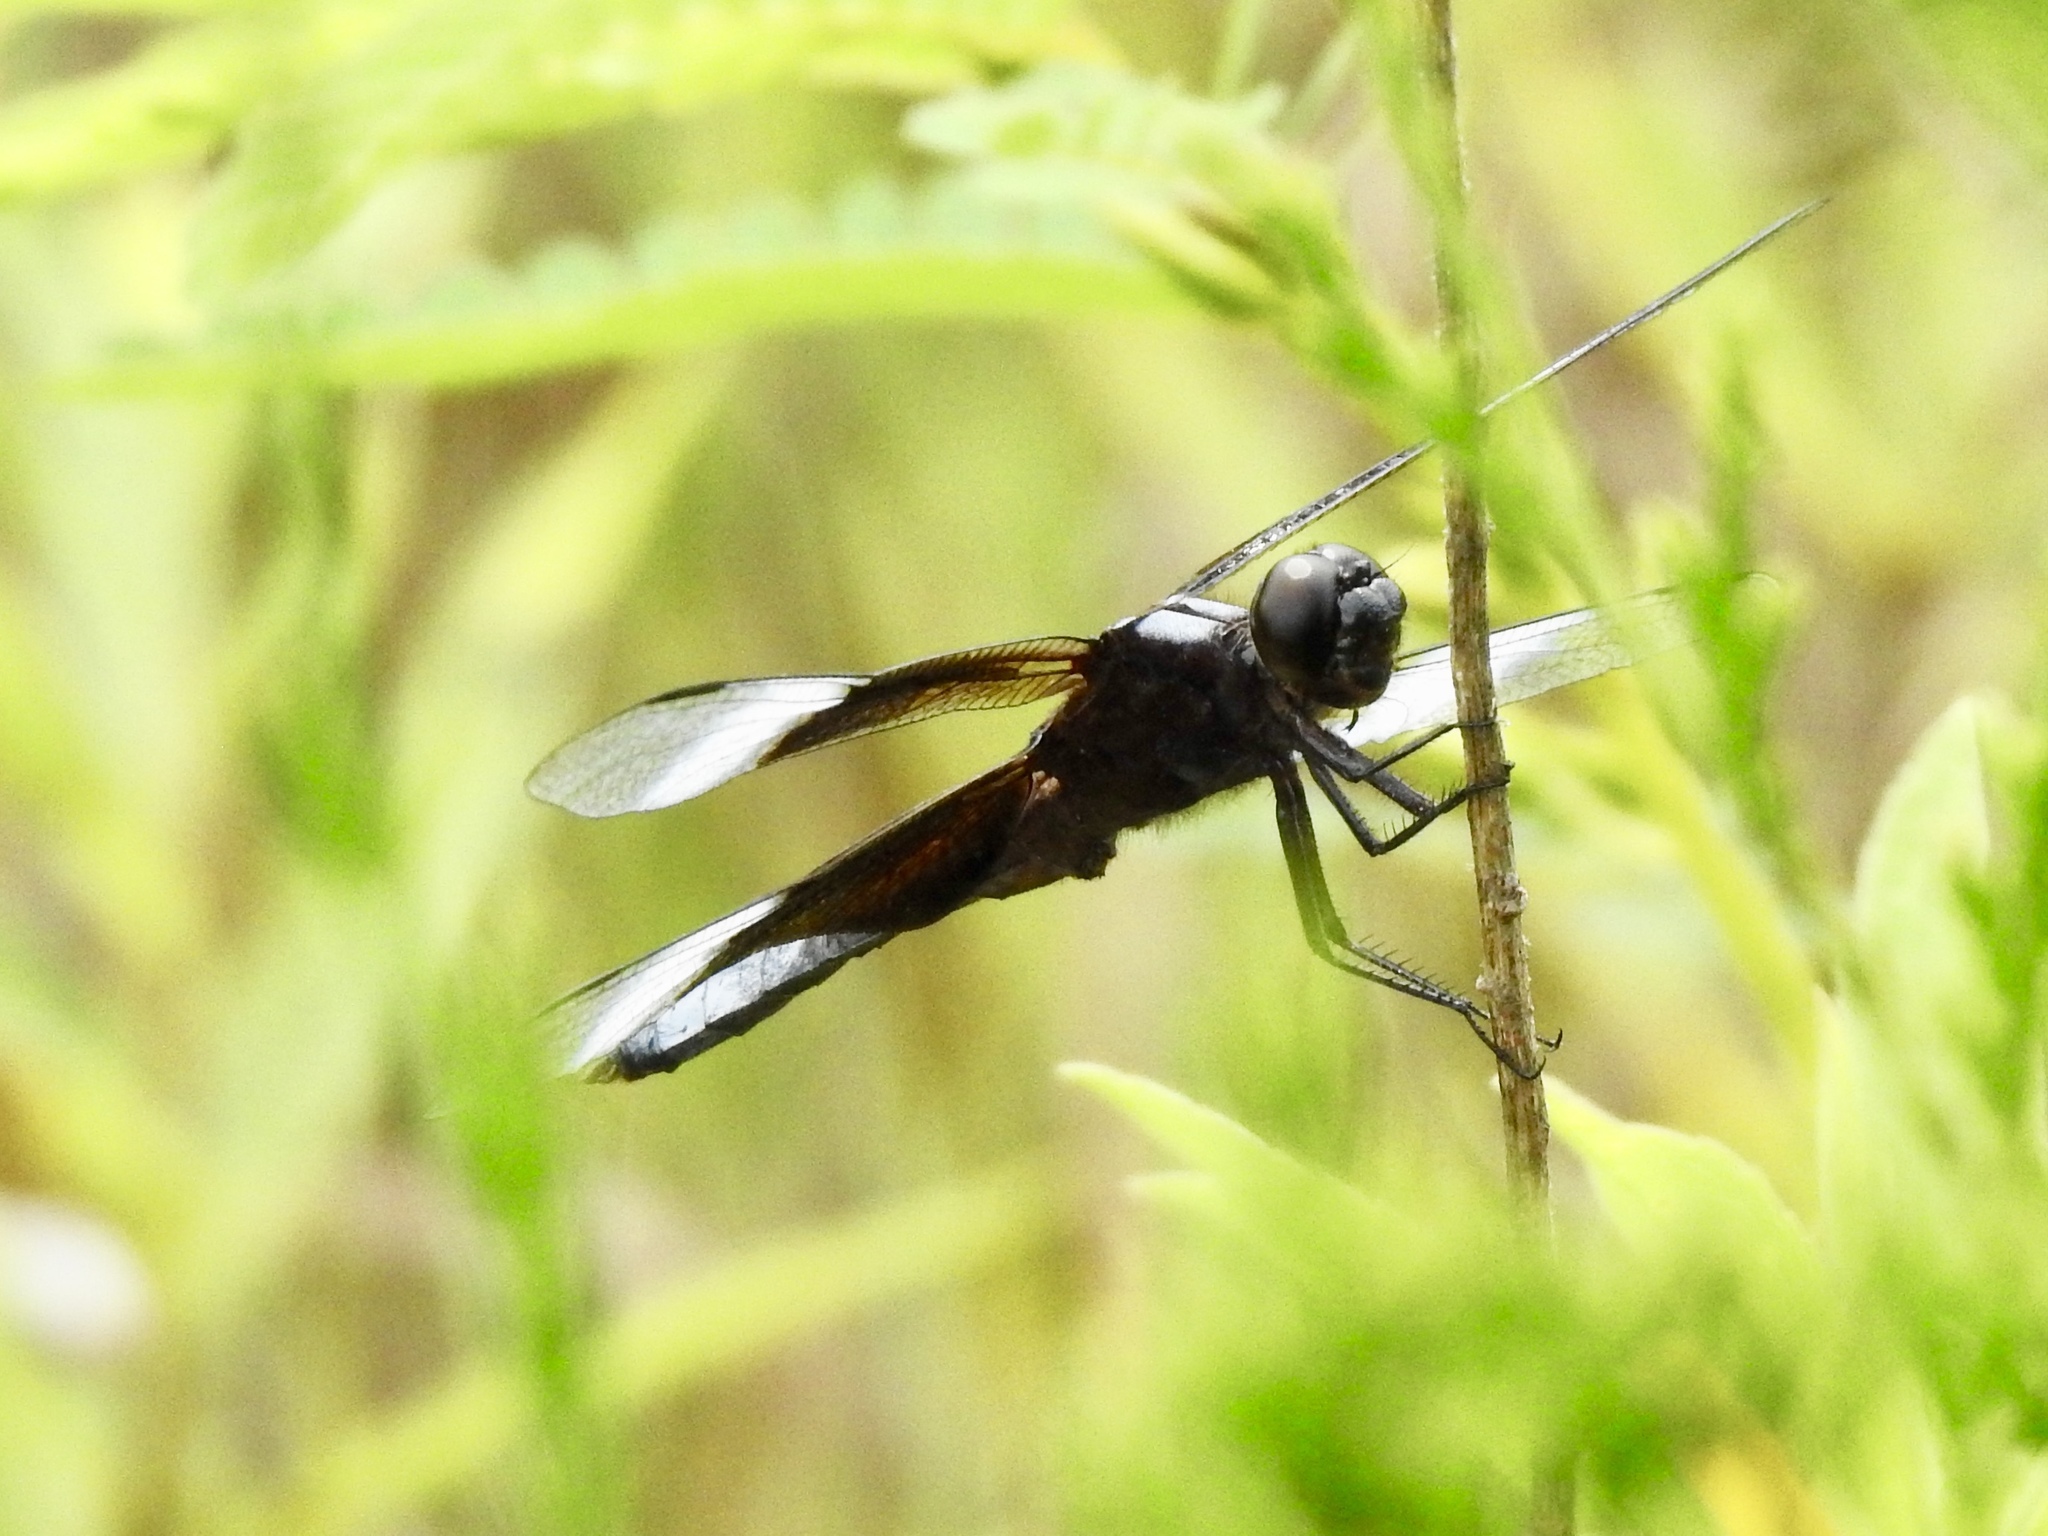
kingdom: Animalia
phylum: Arthropoda
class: Insecta
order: Odonata
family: Libellulidae
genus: Libellula
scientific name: Libellula luctuosa
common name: Widow skimmer
